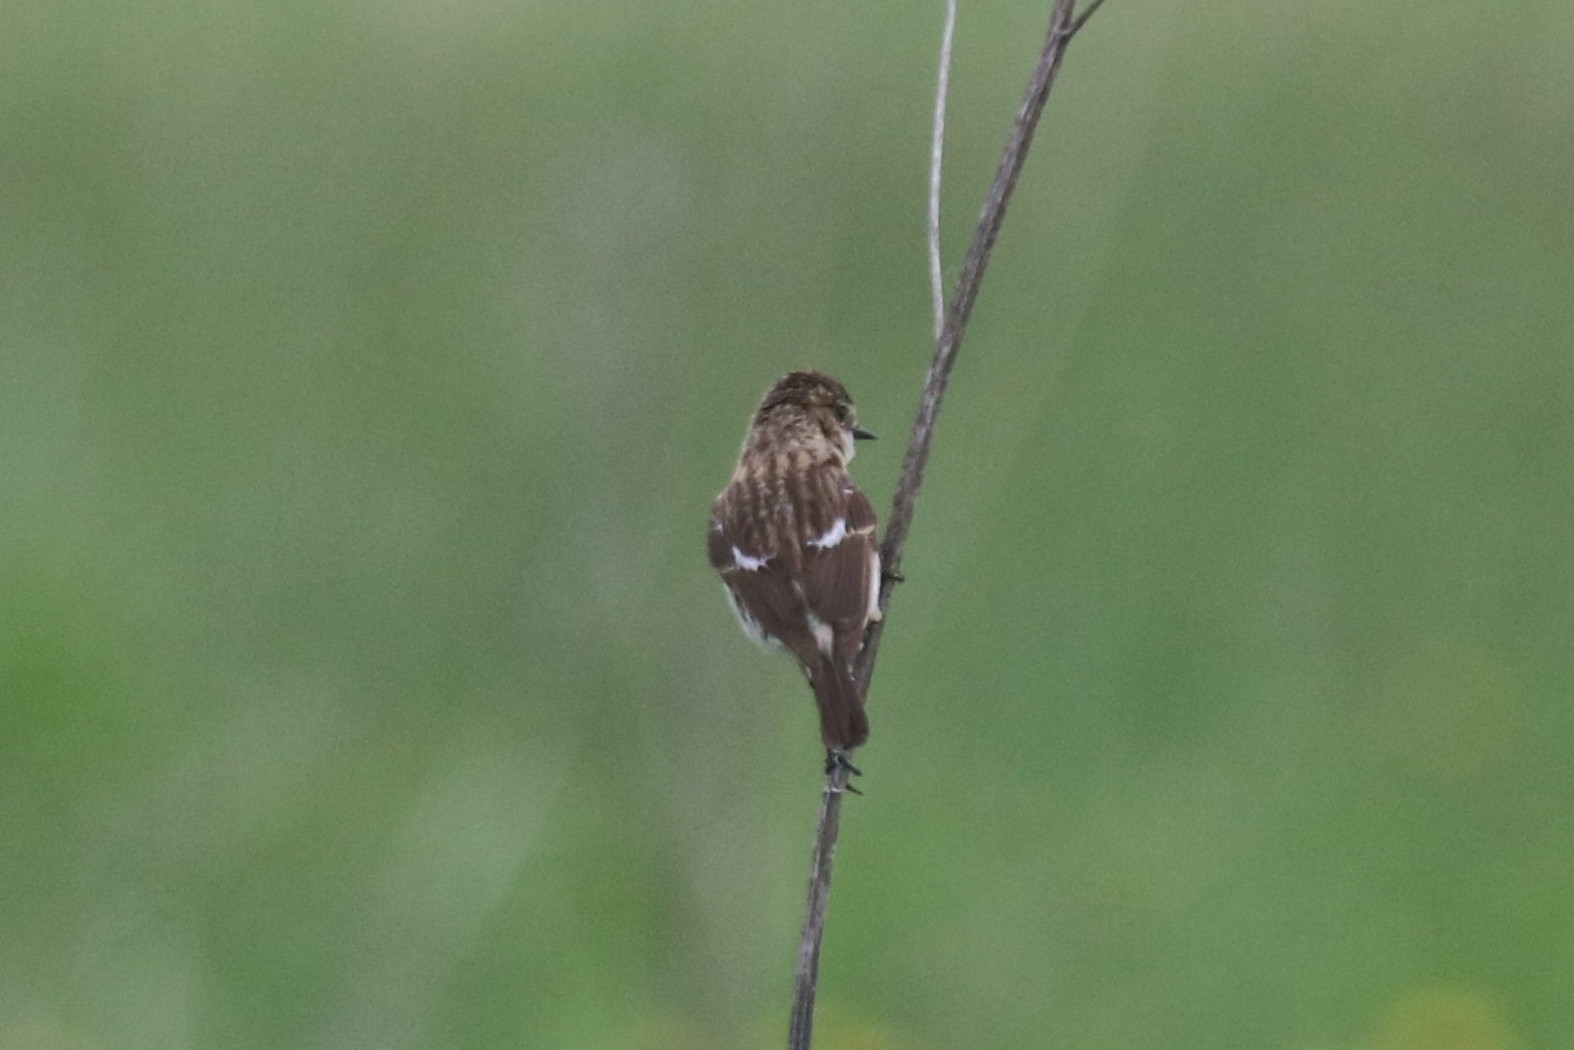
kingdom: Animalia
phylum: Chordata
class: Aves
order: Passeriformes
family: Muscicapidae
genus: Saxicola
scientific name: Saxicola maurus
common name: Siberian stonechat
